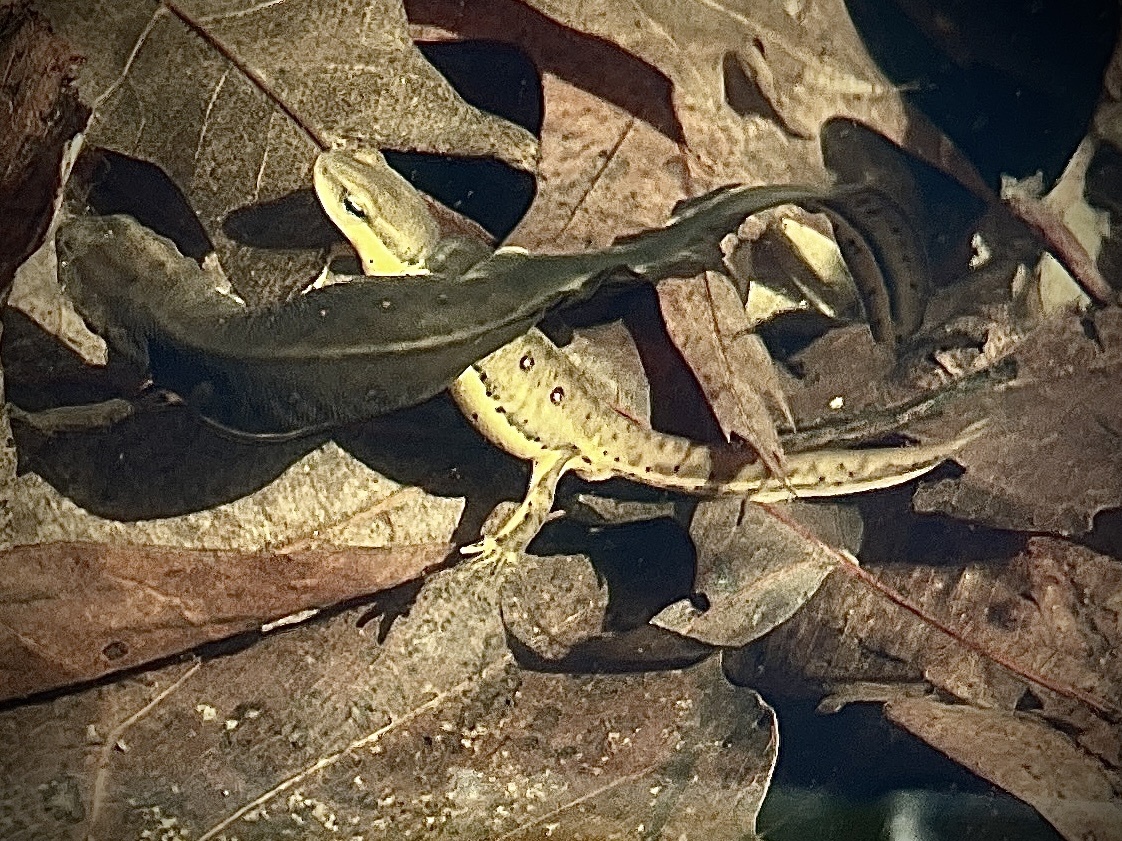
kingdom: Animalia
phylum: Chordata
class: Amphibia
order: Caudata
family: Salamandridae
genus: Notophthalmus
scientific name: Notophthalmus viridescens
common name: Eastern newt
